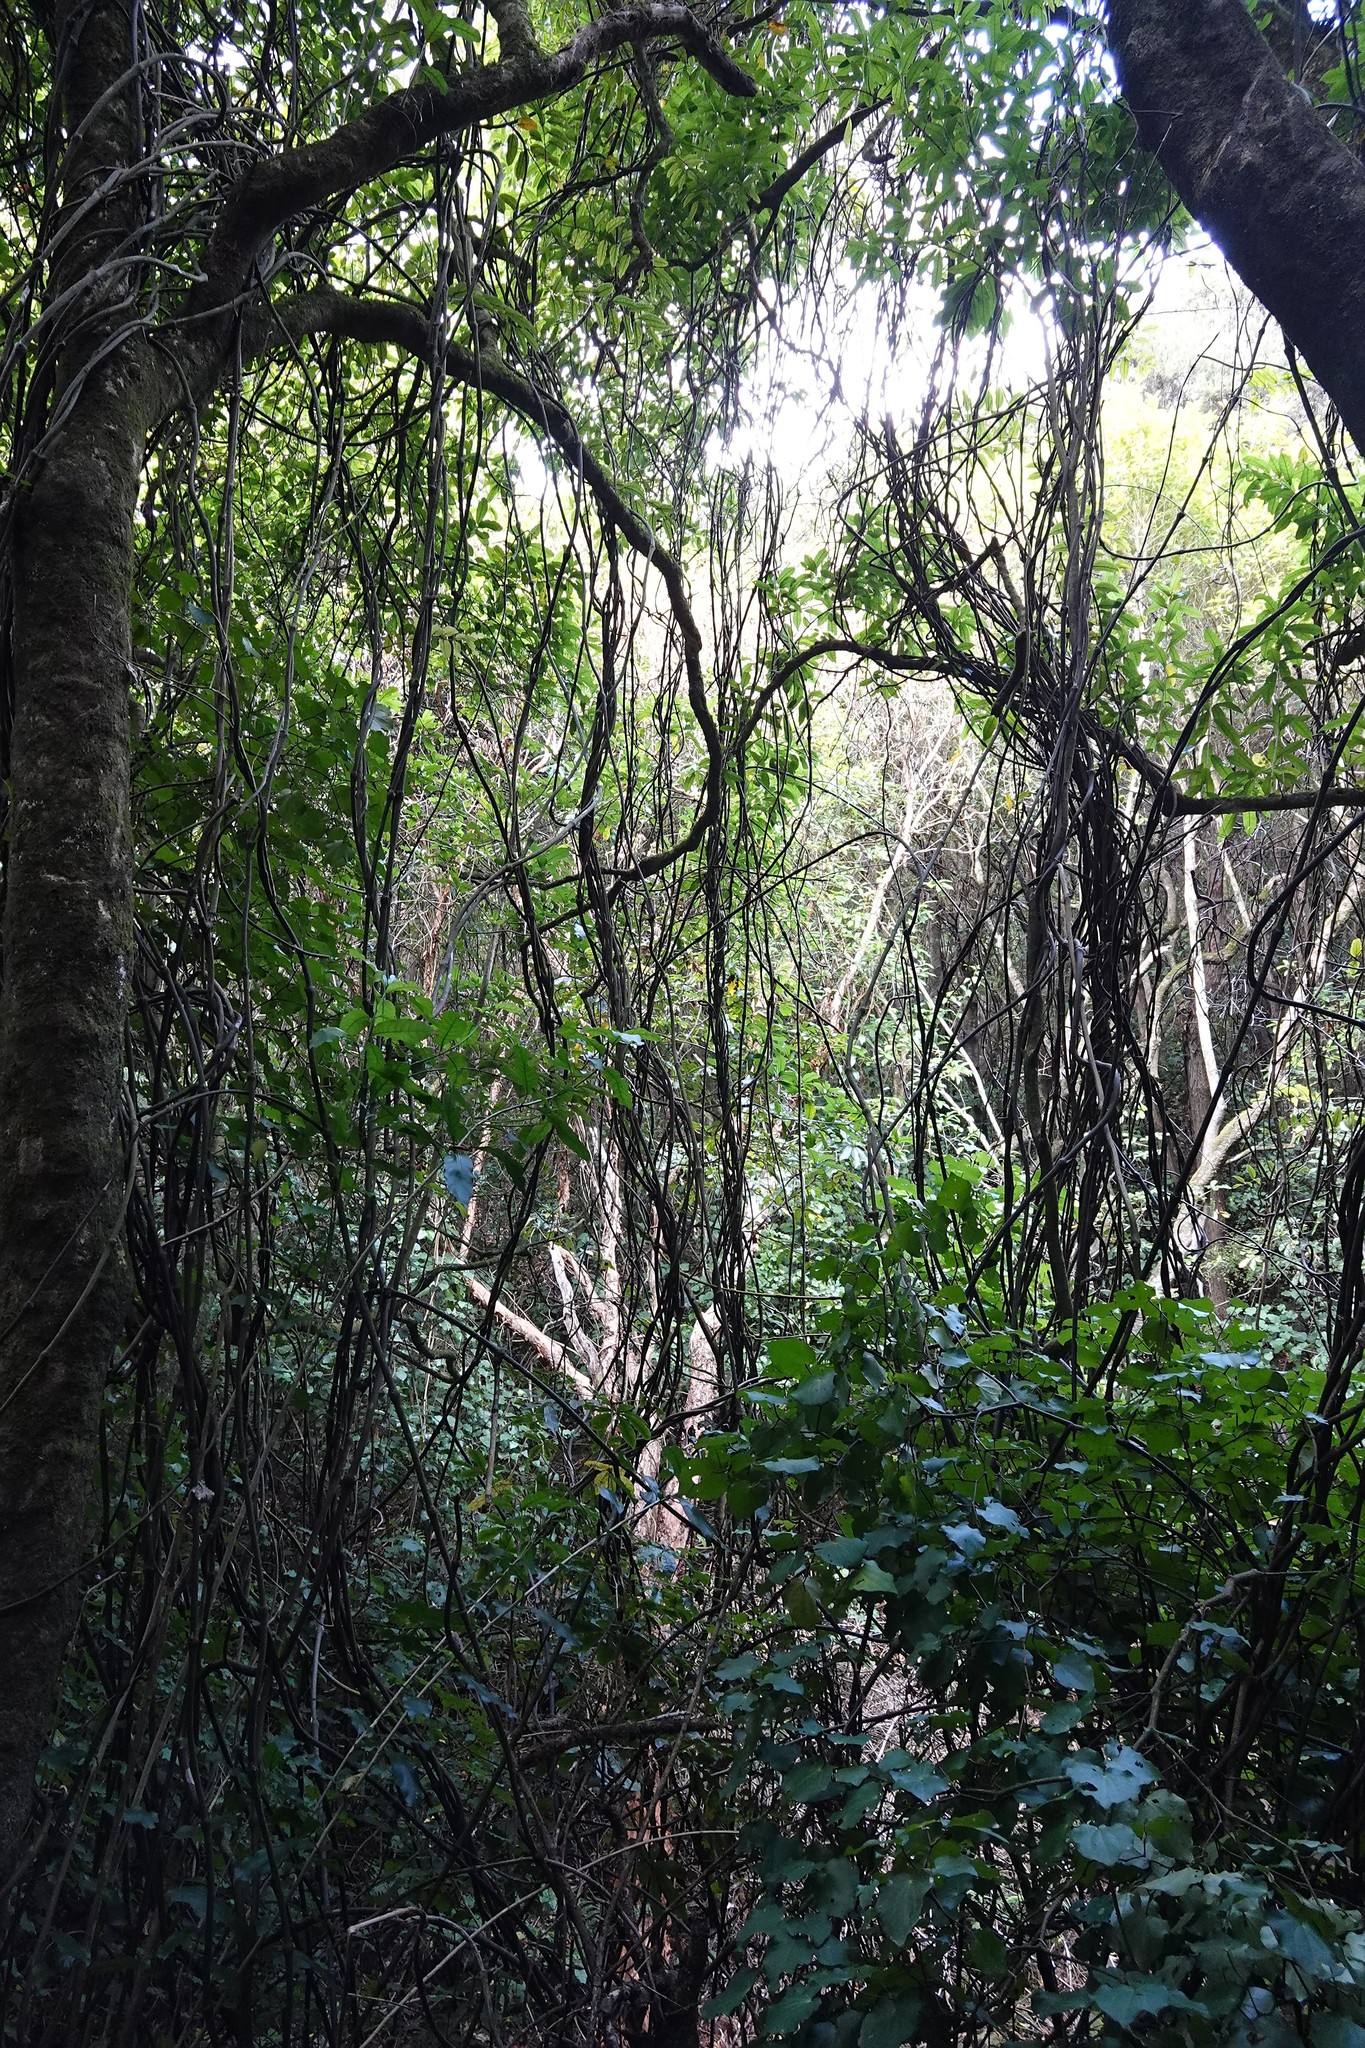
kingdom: Plantae
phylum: Tracheophyta
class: Liliopsida
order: Liliales
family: Ripogonaceae
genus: Ripogonum
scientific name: Ripogonum scandens
